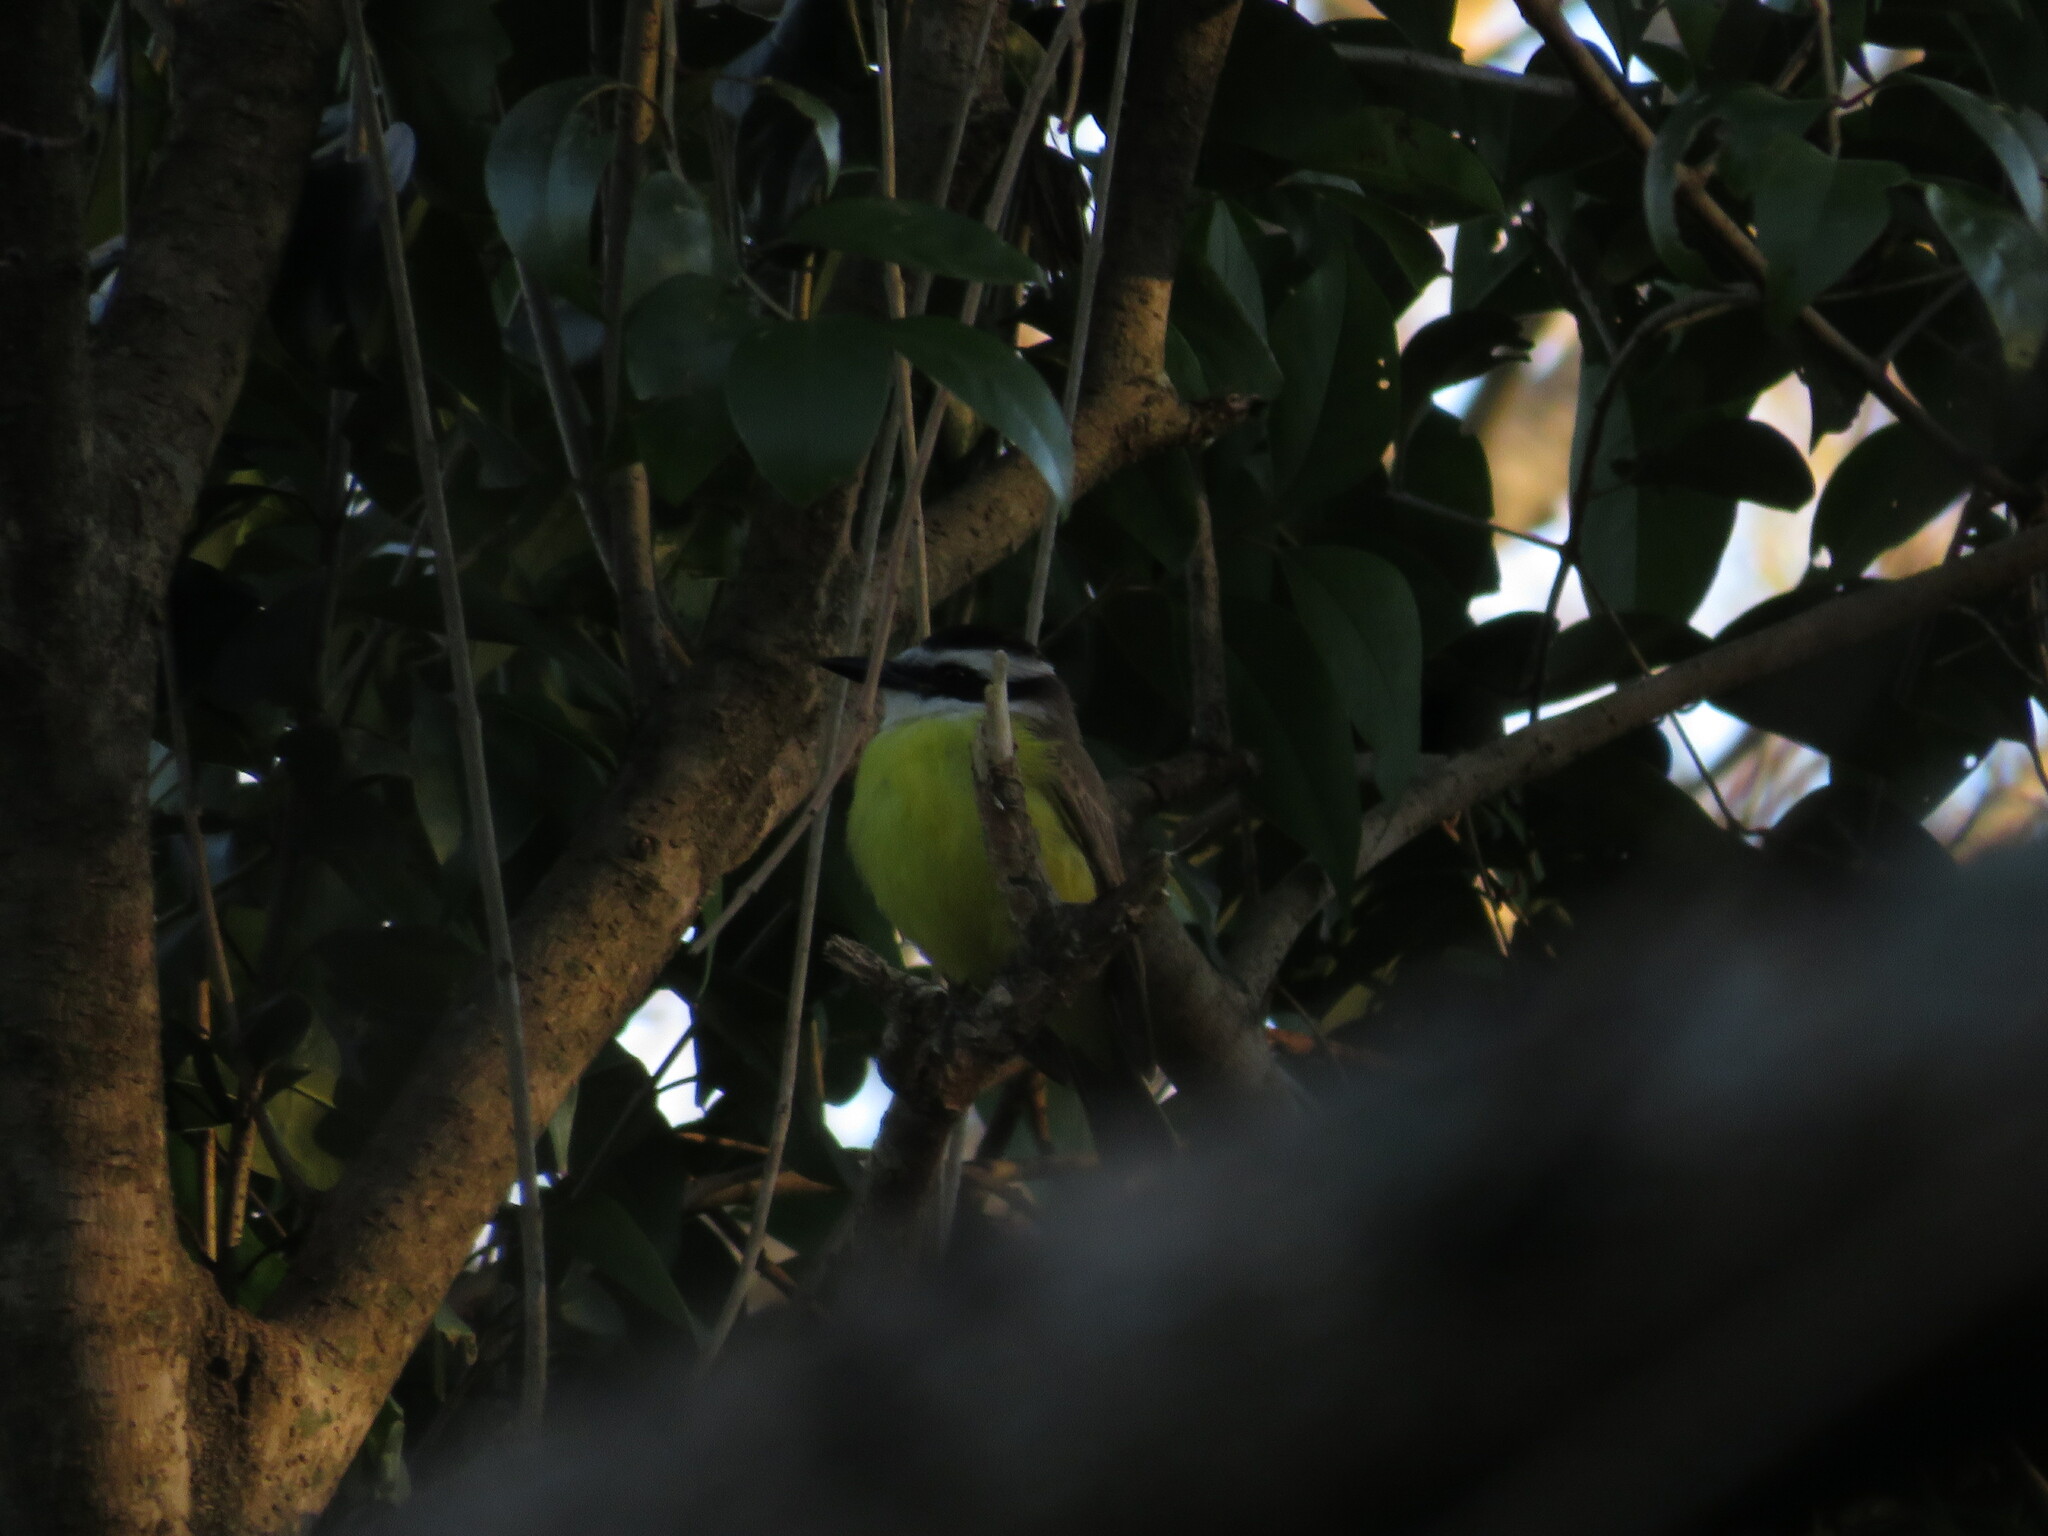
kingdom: Animalia
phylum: Chordata
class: Aves
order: Passeriformes
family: Tyrannidae
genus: Pitangus
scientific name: Pitangus sulphuratus
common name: Great kiskadee
